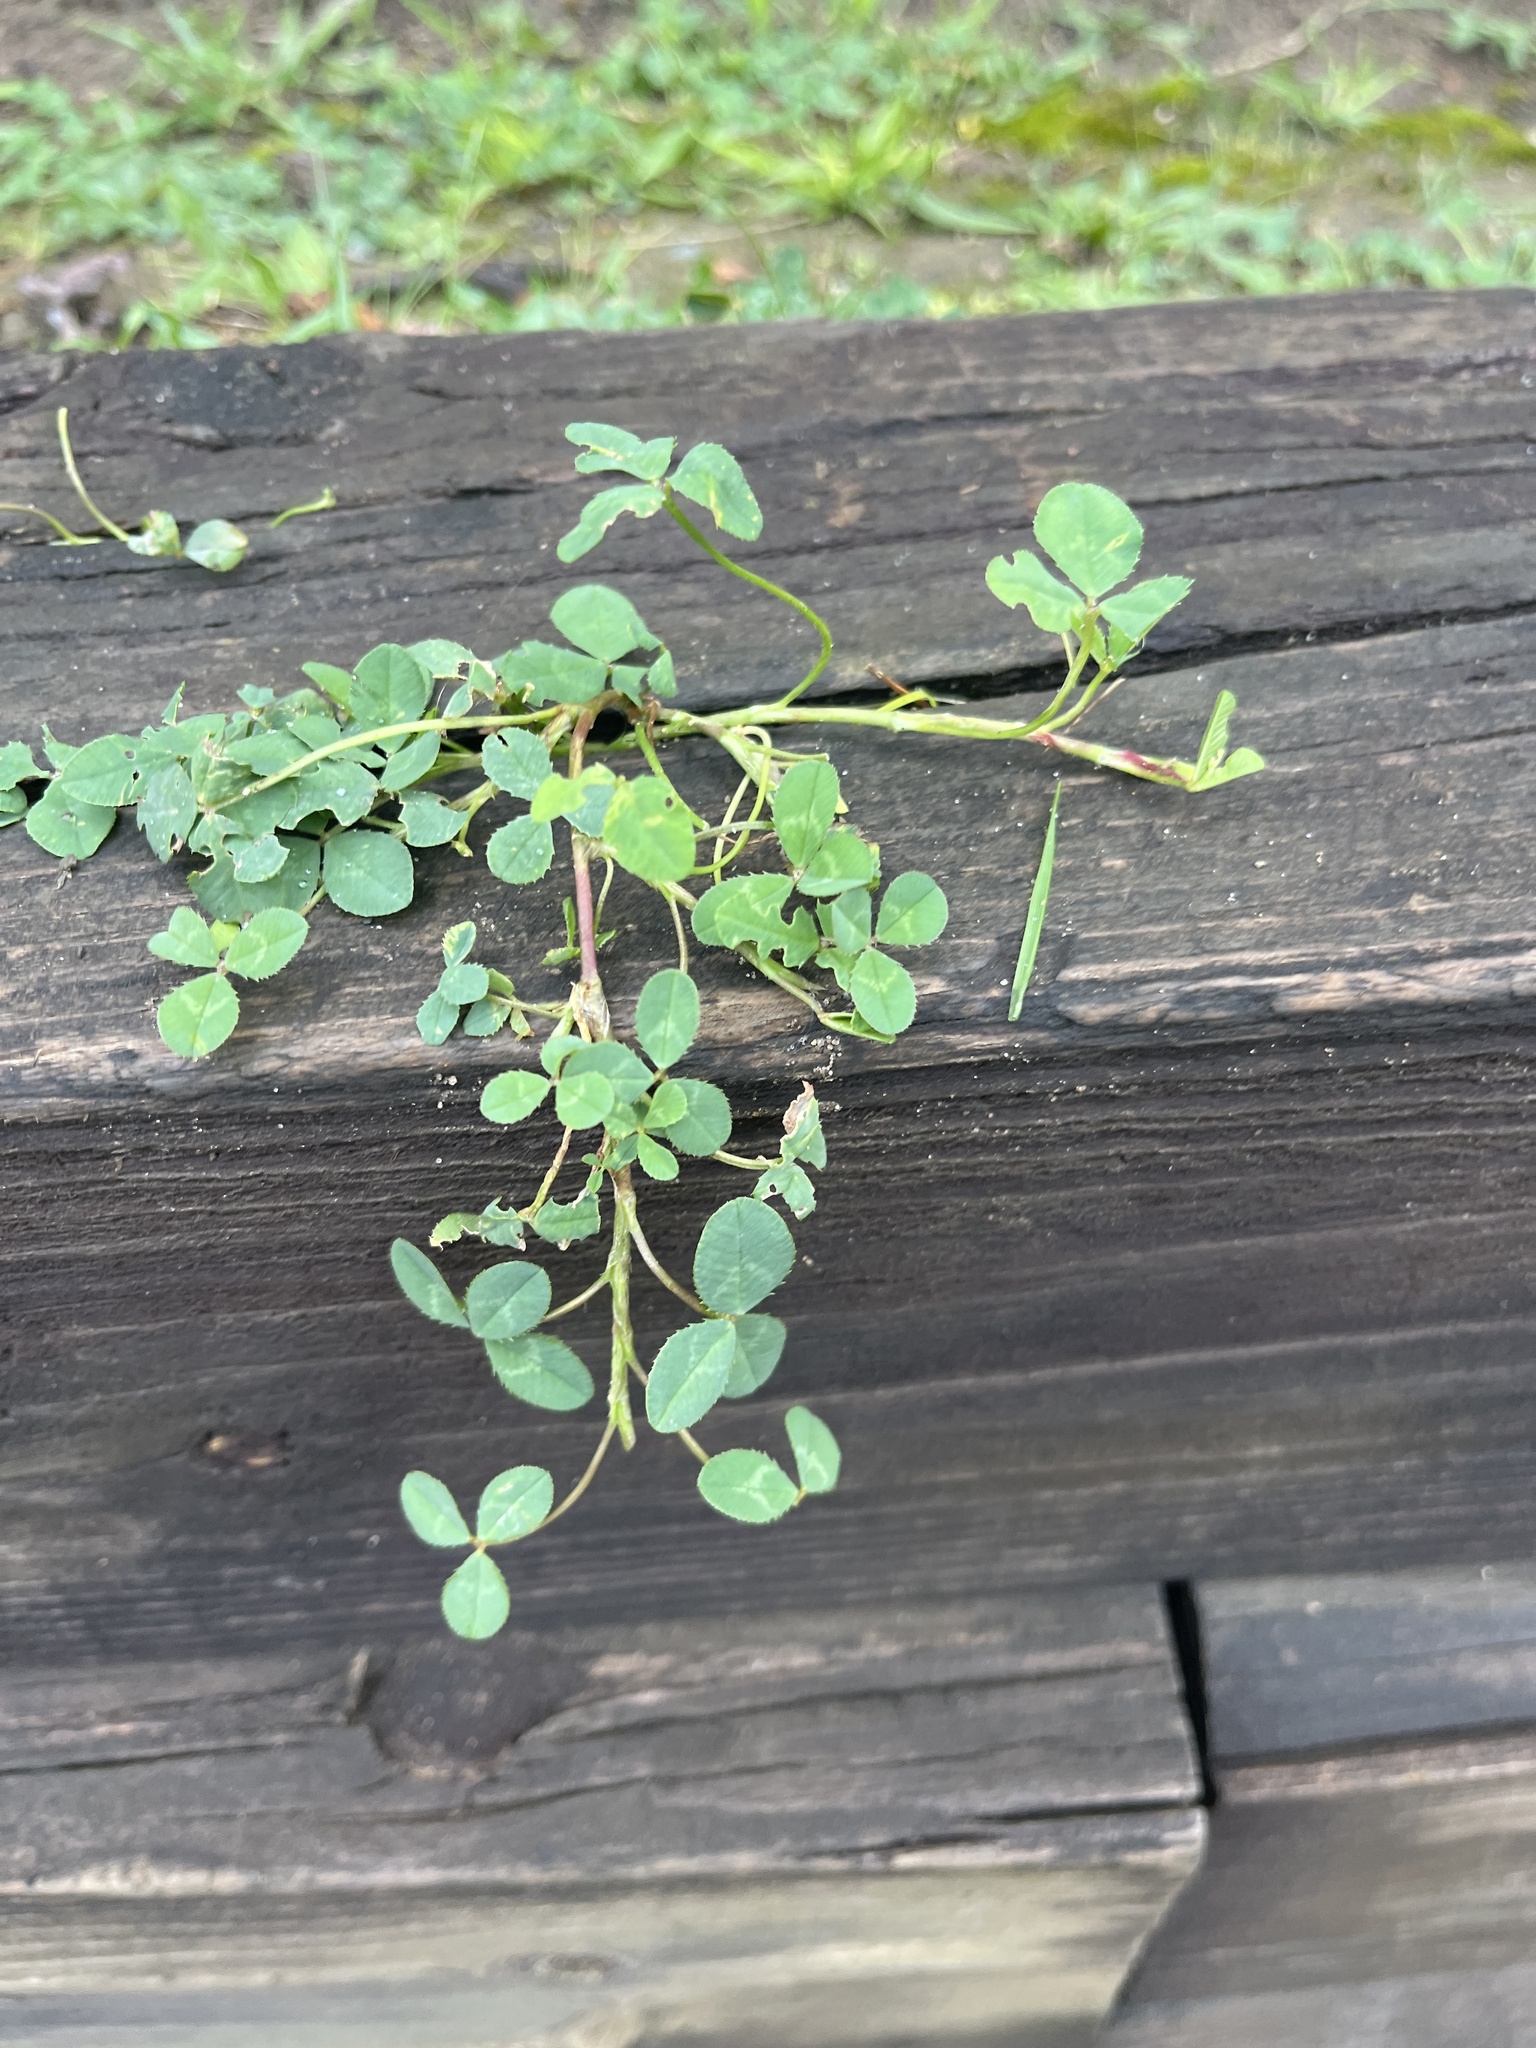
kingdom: Plantae
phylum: Tracheophyta
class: Magnoliopsida
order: Fabales
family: Fabaceae
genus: Medicago
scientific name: Medicago lupulina
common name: Black medick
